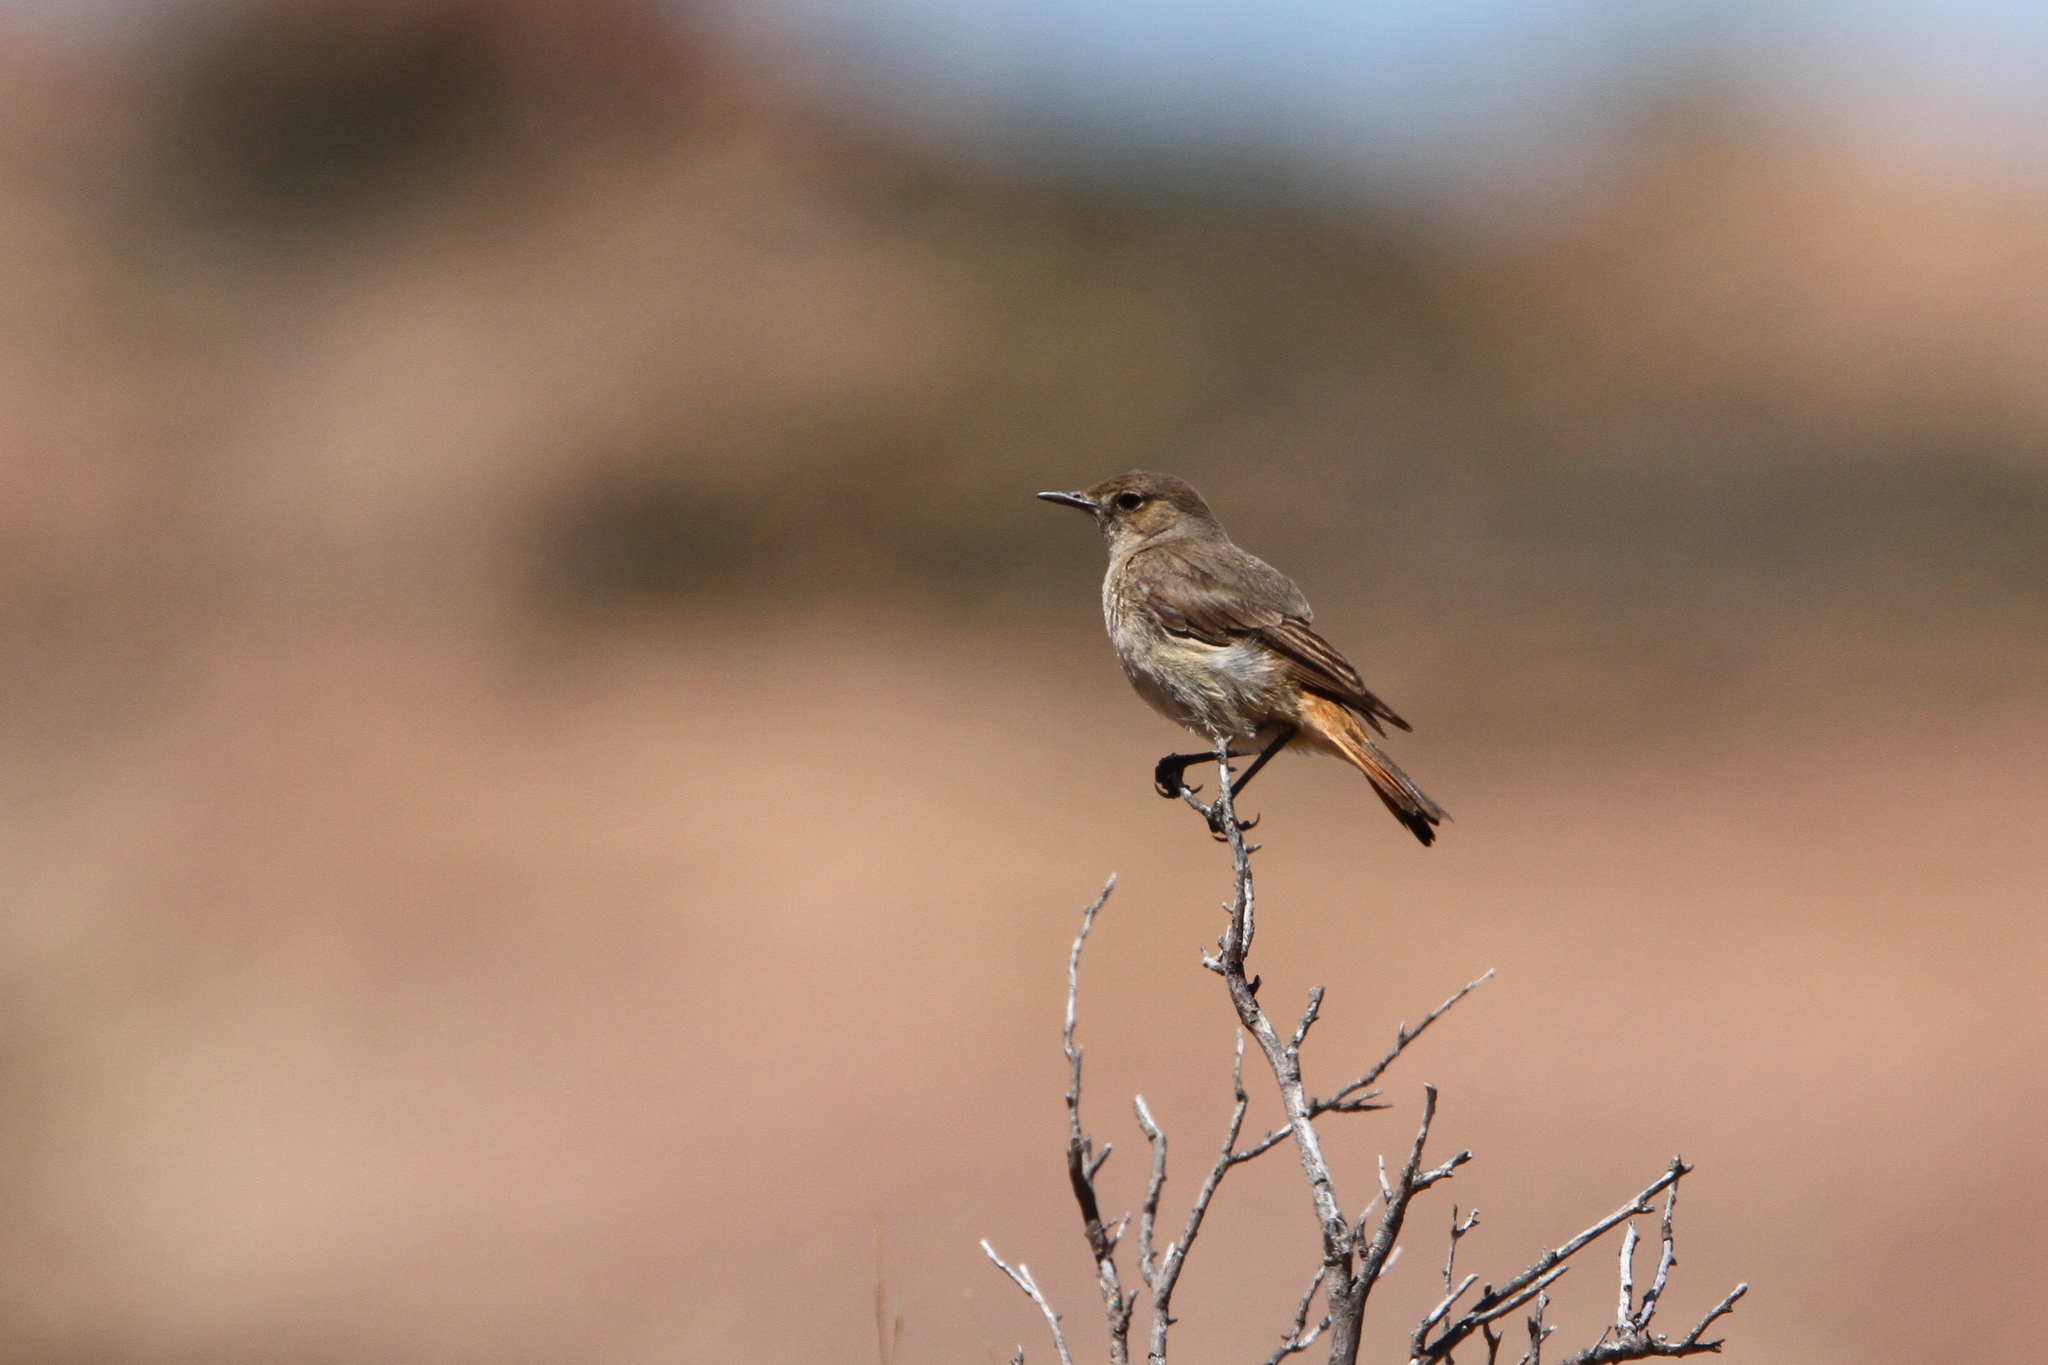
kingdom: Animalia
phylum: Chordata
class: Aves
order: Passeriformes
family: Muscicapidae
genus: Oenanthe
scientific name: Oenanthe familiaris
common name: Familiar chat
